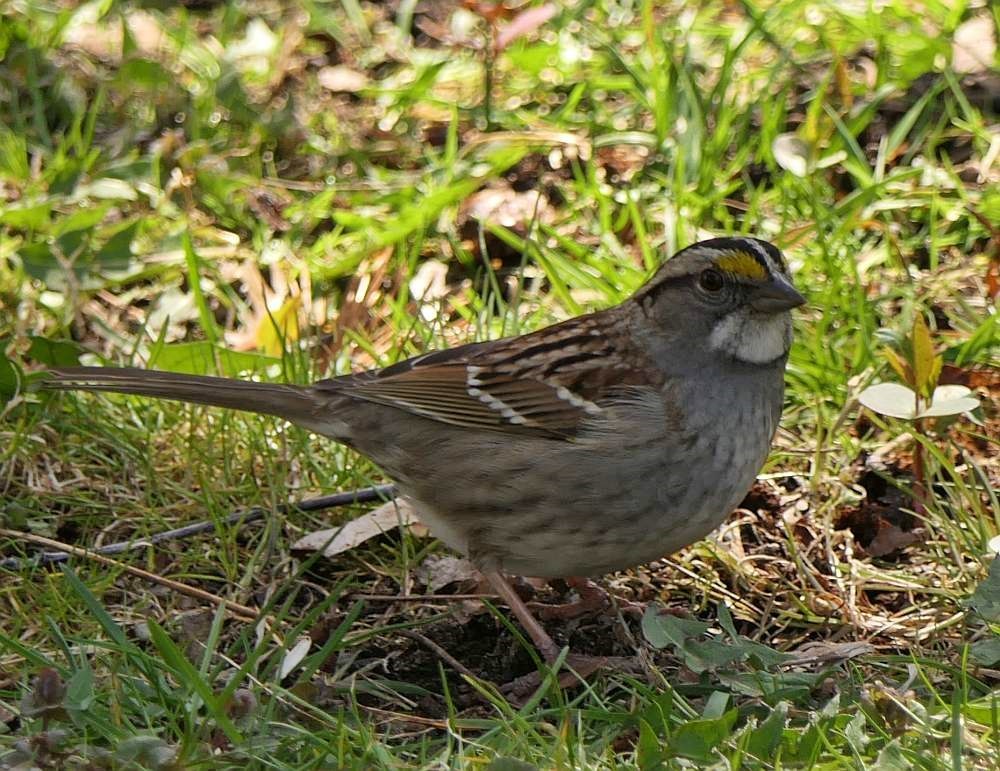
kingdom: Animalia
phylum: Chordata
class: Aves
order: Passeriformes
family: Passerellidae
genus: Zonotrichia
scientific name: Zonotrichia albicollis
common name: White-throated sparrow
